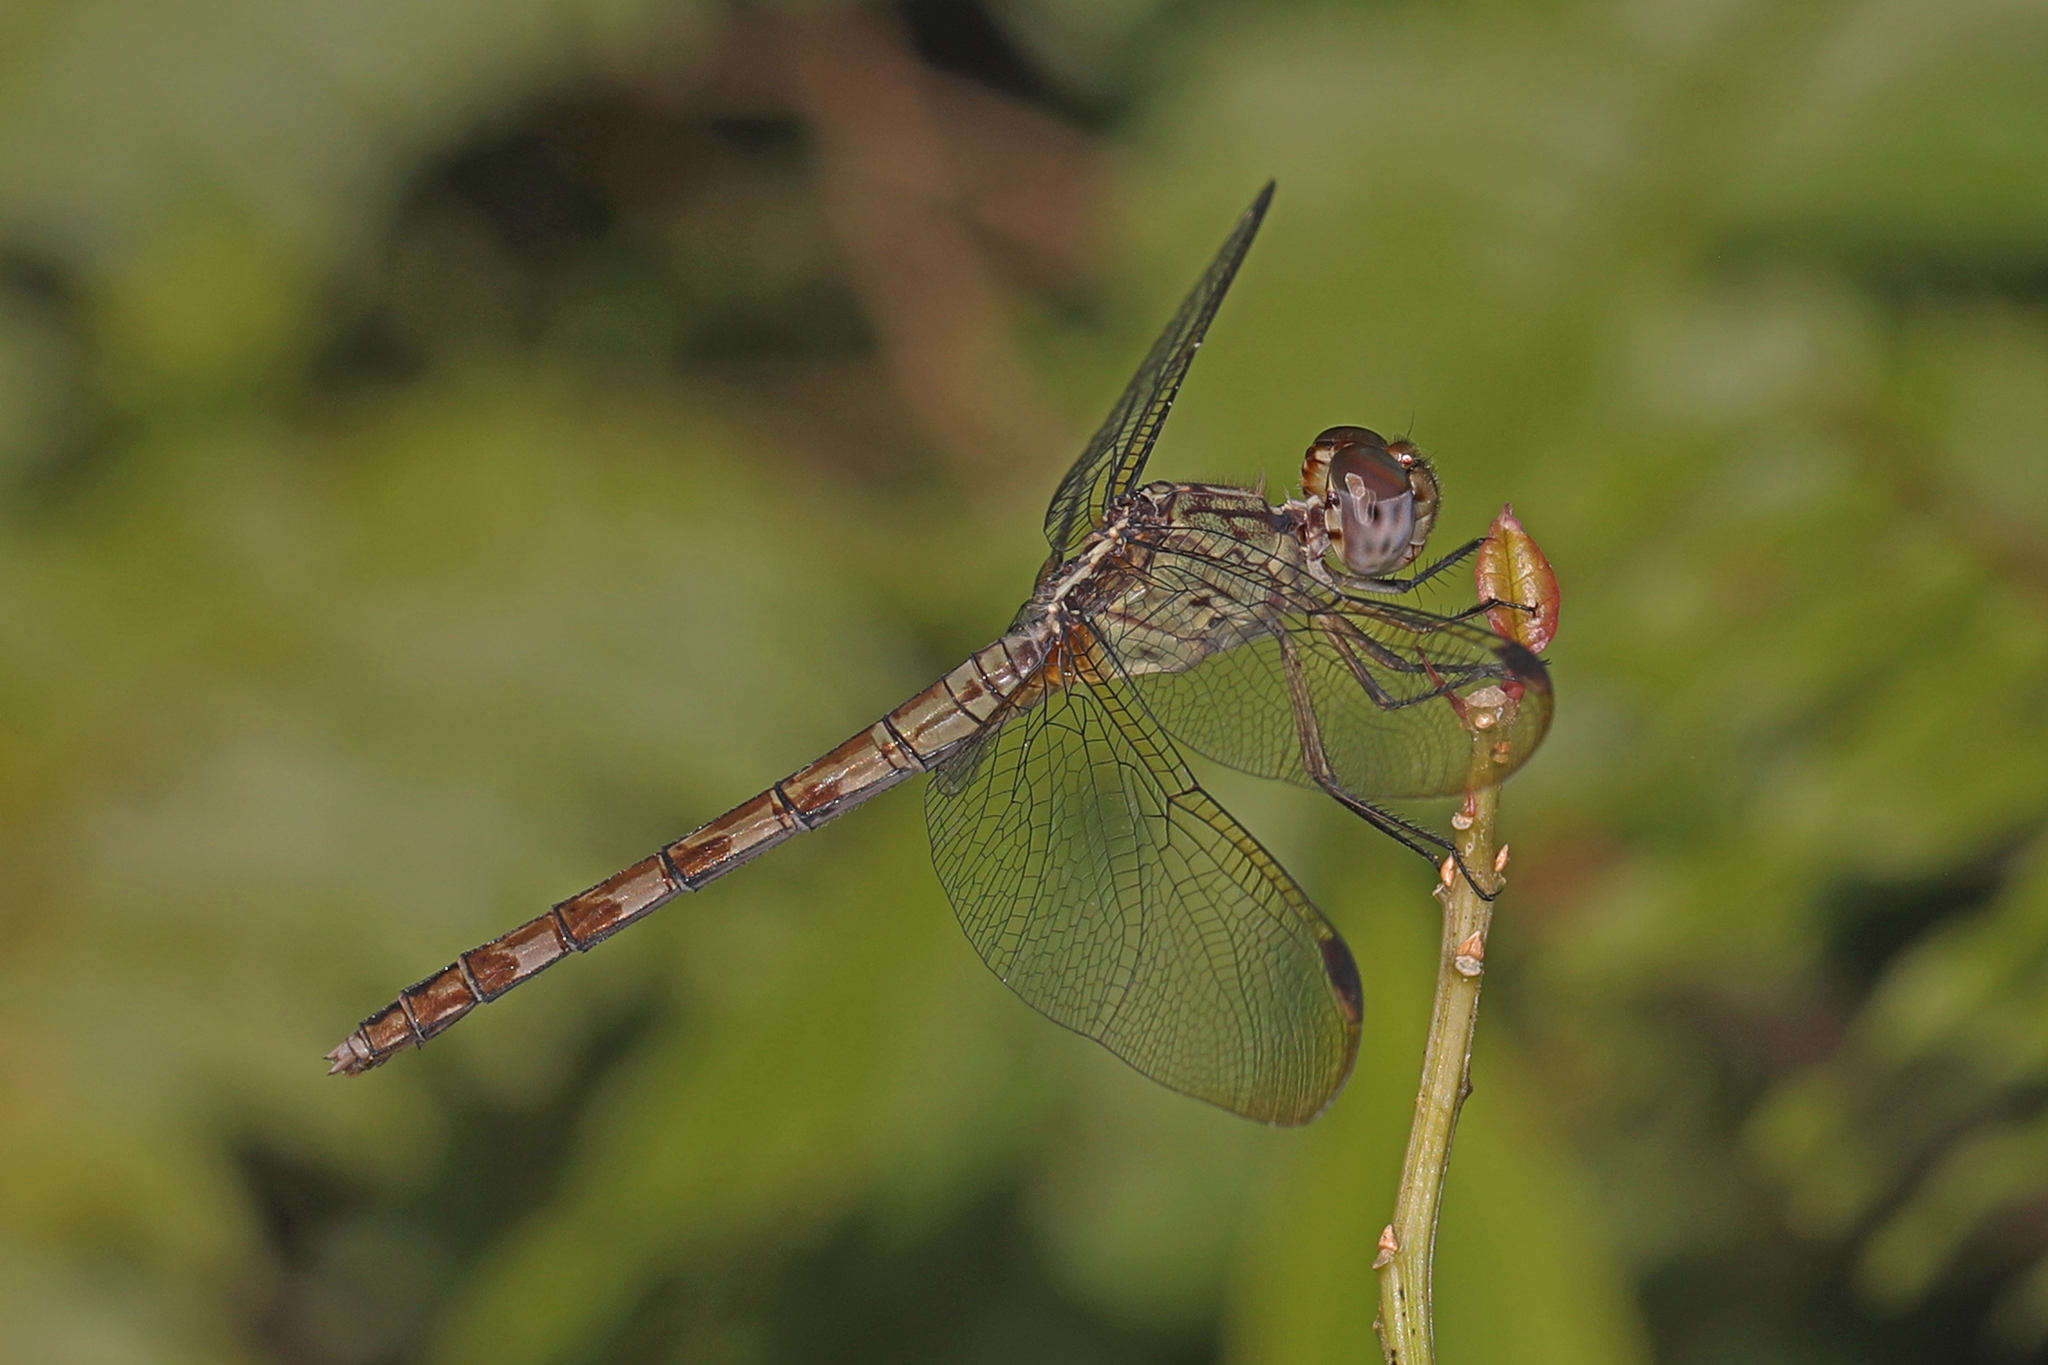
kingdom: Animalia
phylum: Arthropoda
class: Insecta
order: Odonata
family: Libellulidae
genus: Erythrodiplax
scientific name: Erythrodiplax umbrata
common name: Band-winged dragonlet
